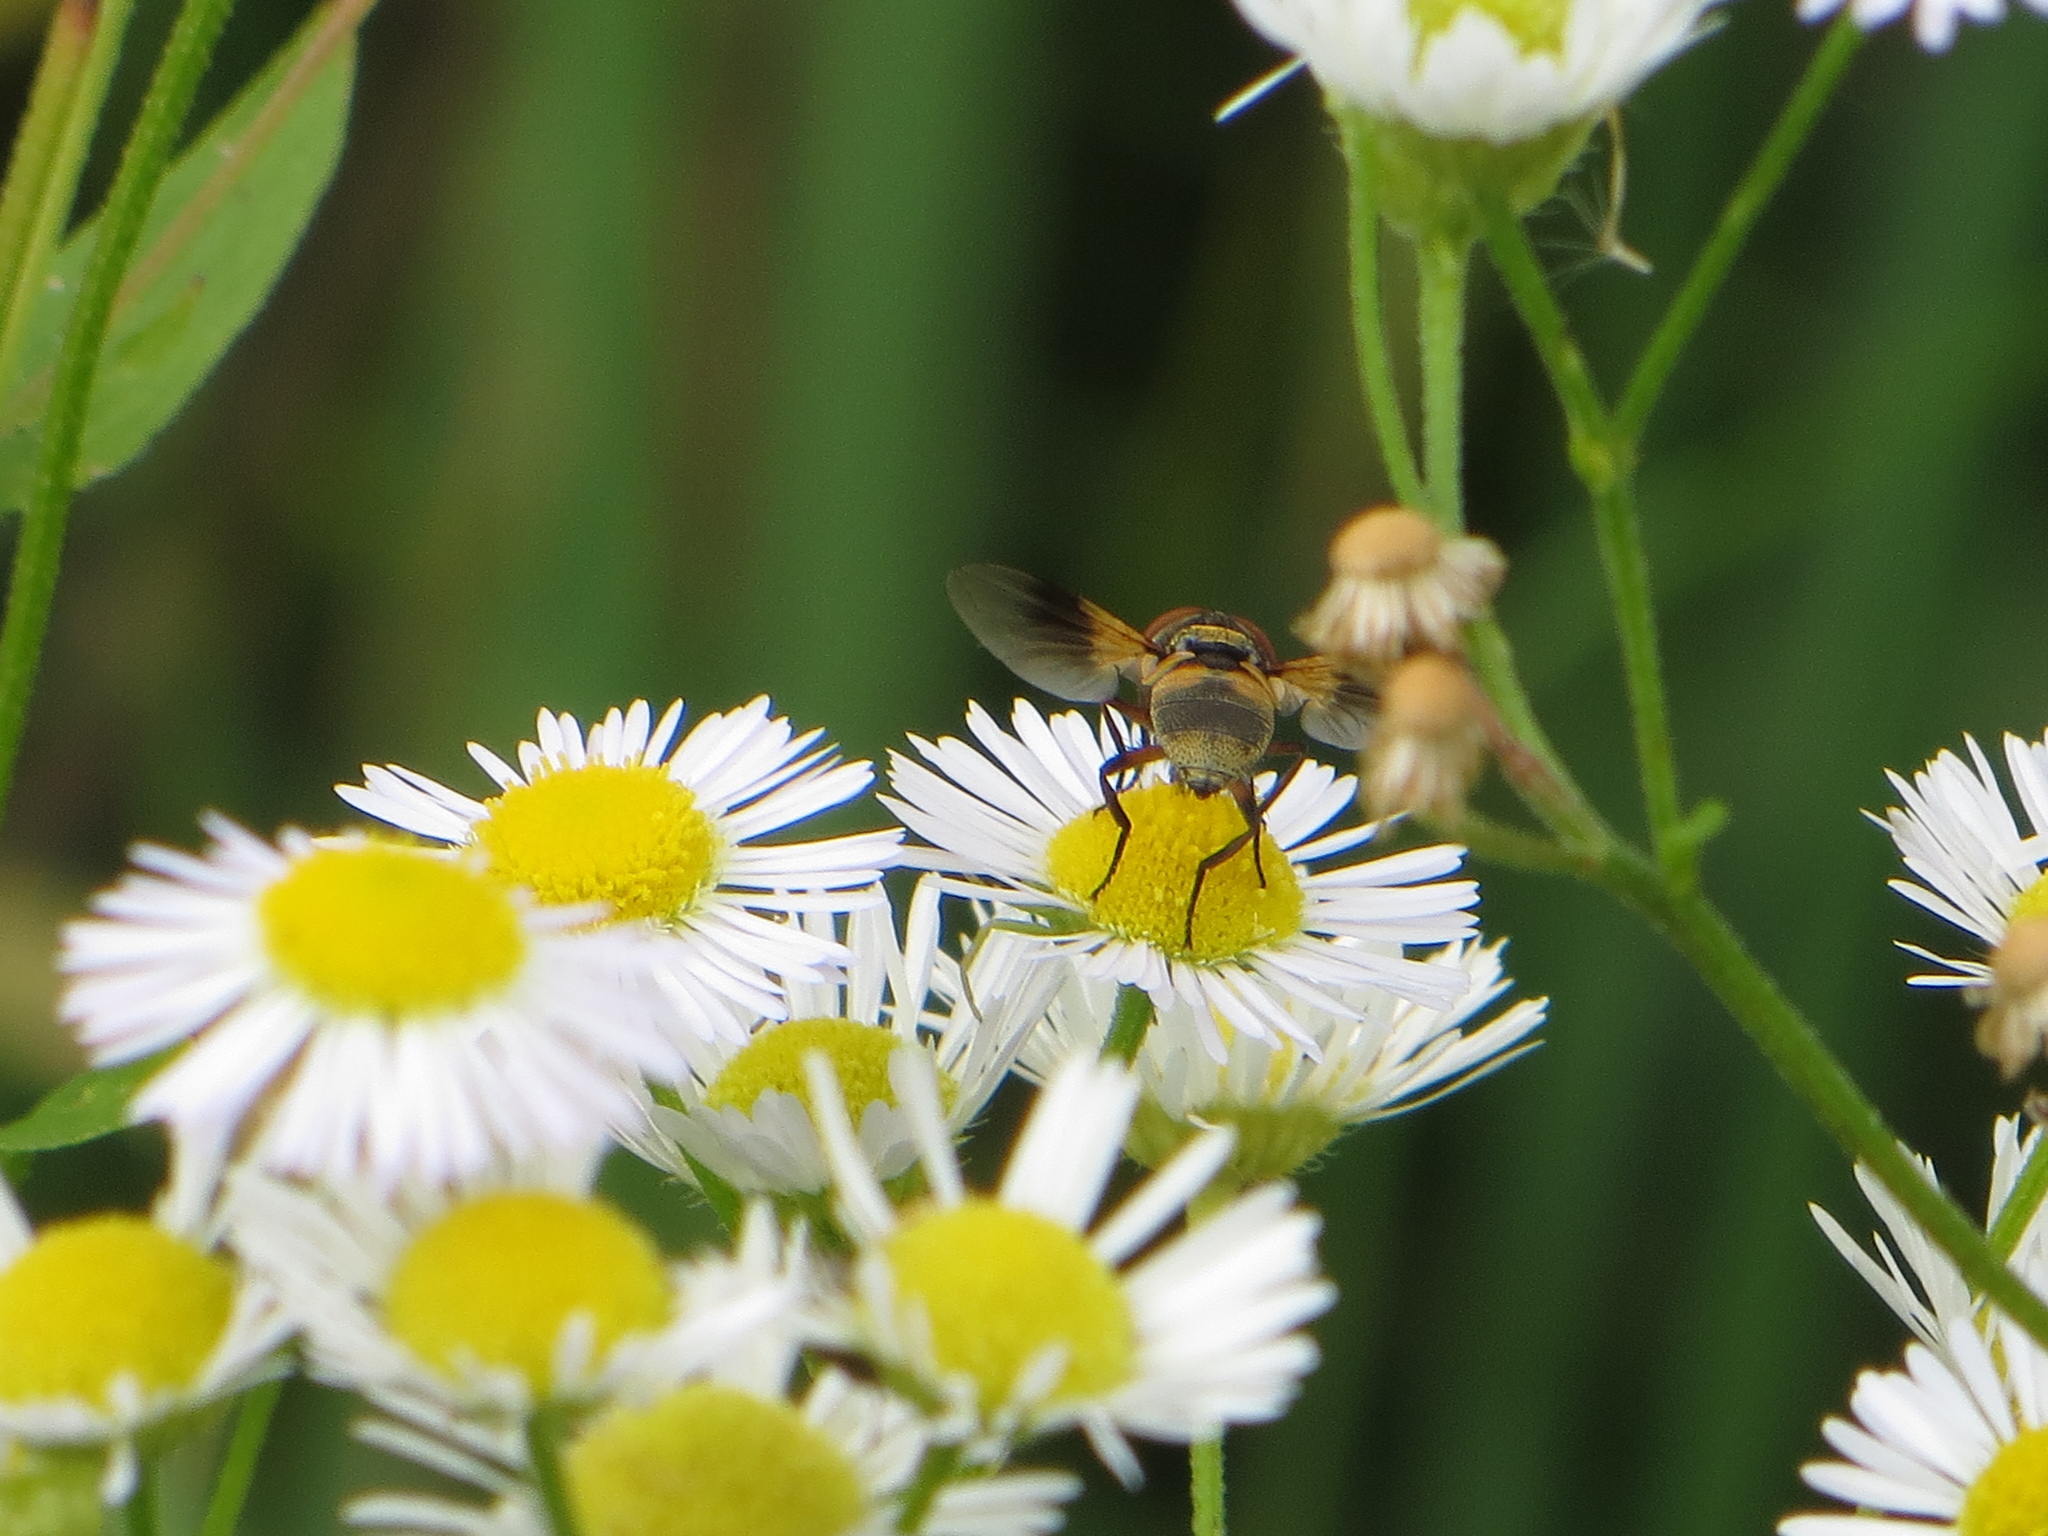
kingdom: Animalia
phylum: Arthropoda
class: Insecta
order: Diptera
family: Tachinidae
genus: Ectophasia
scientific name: Ectophasia crassipennis
